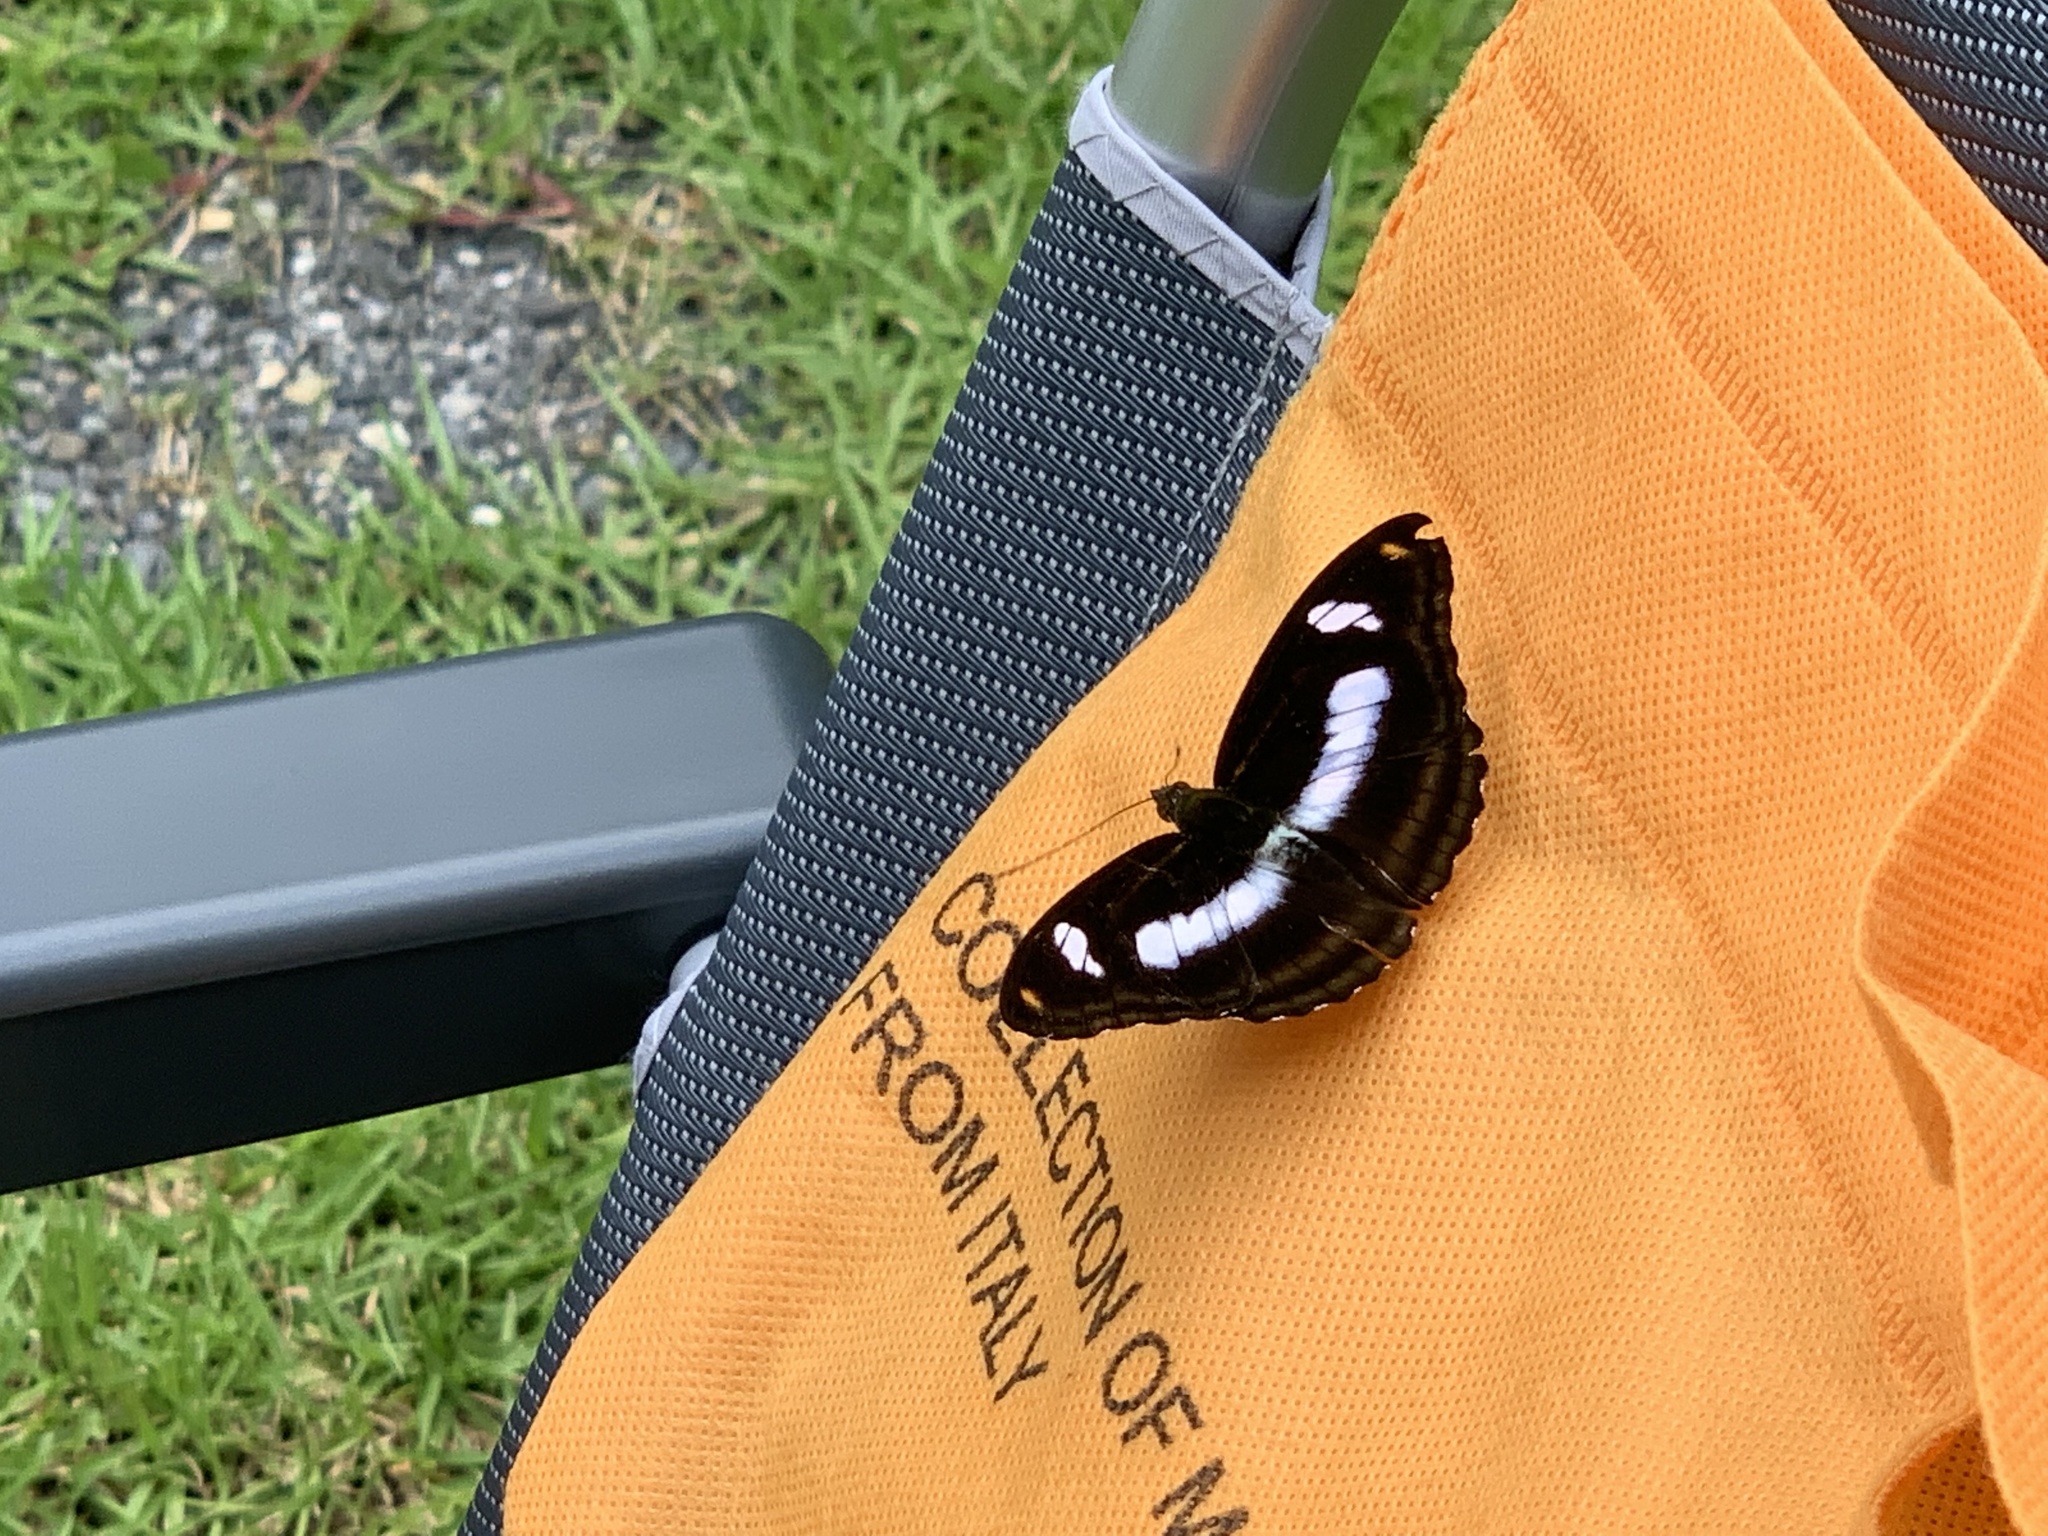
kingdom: Animalia
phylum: Arthropoda
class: Insecta
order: Lepidoptera
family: Nymphalidae
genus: Pantoporia
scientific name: Pantoporia cama
